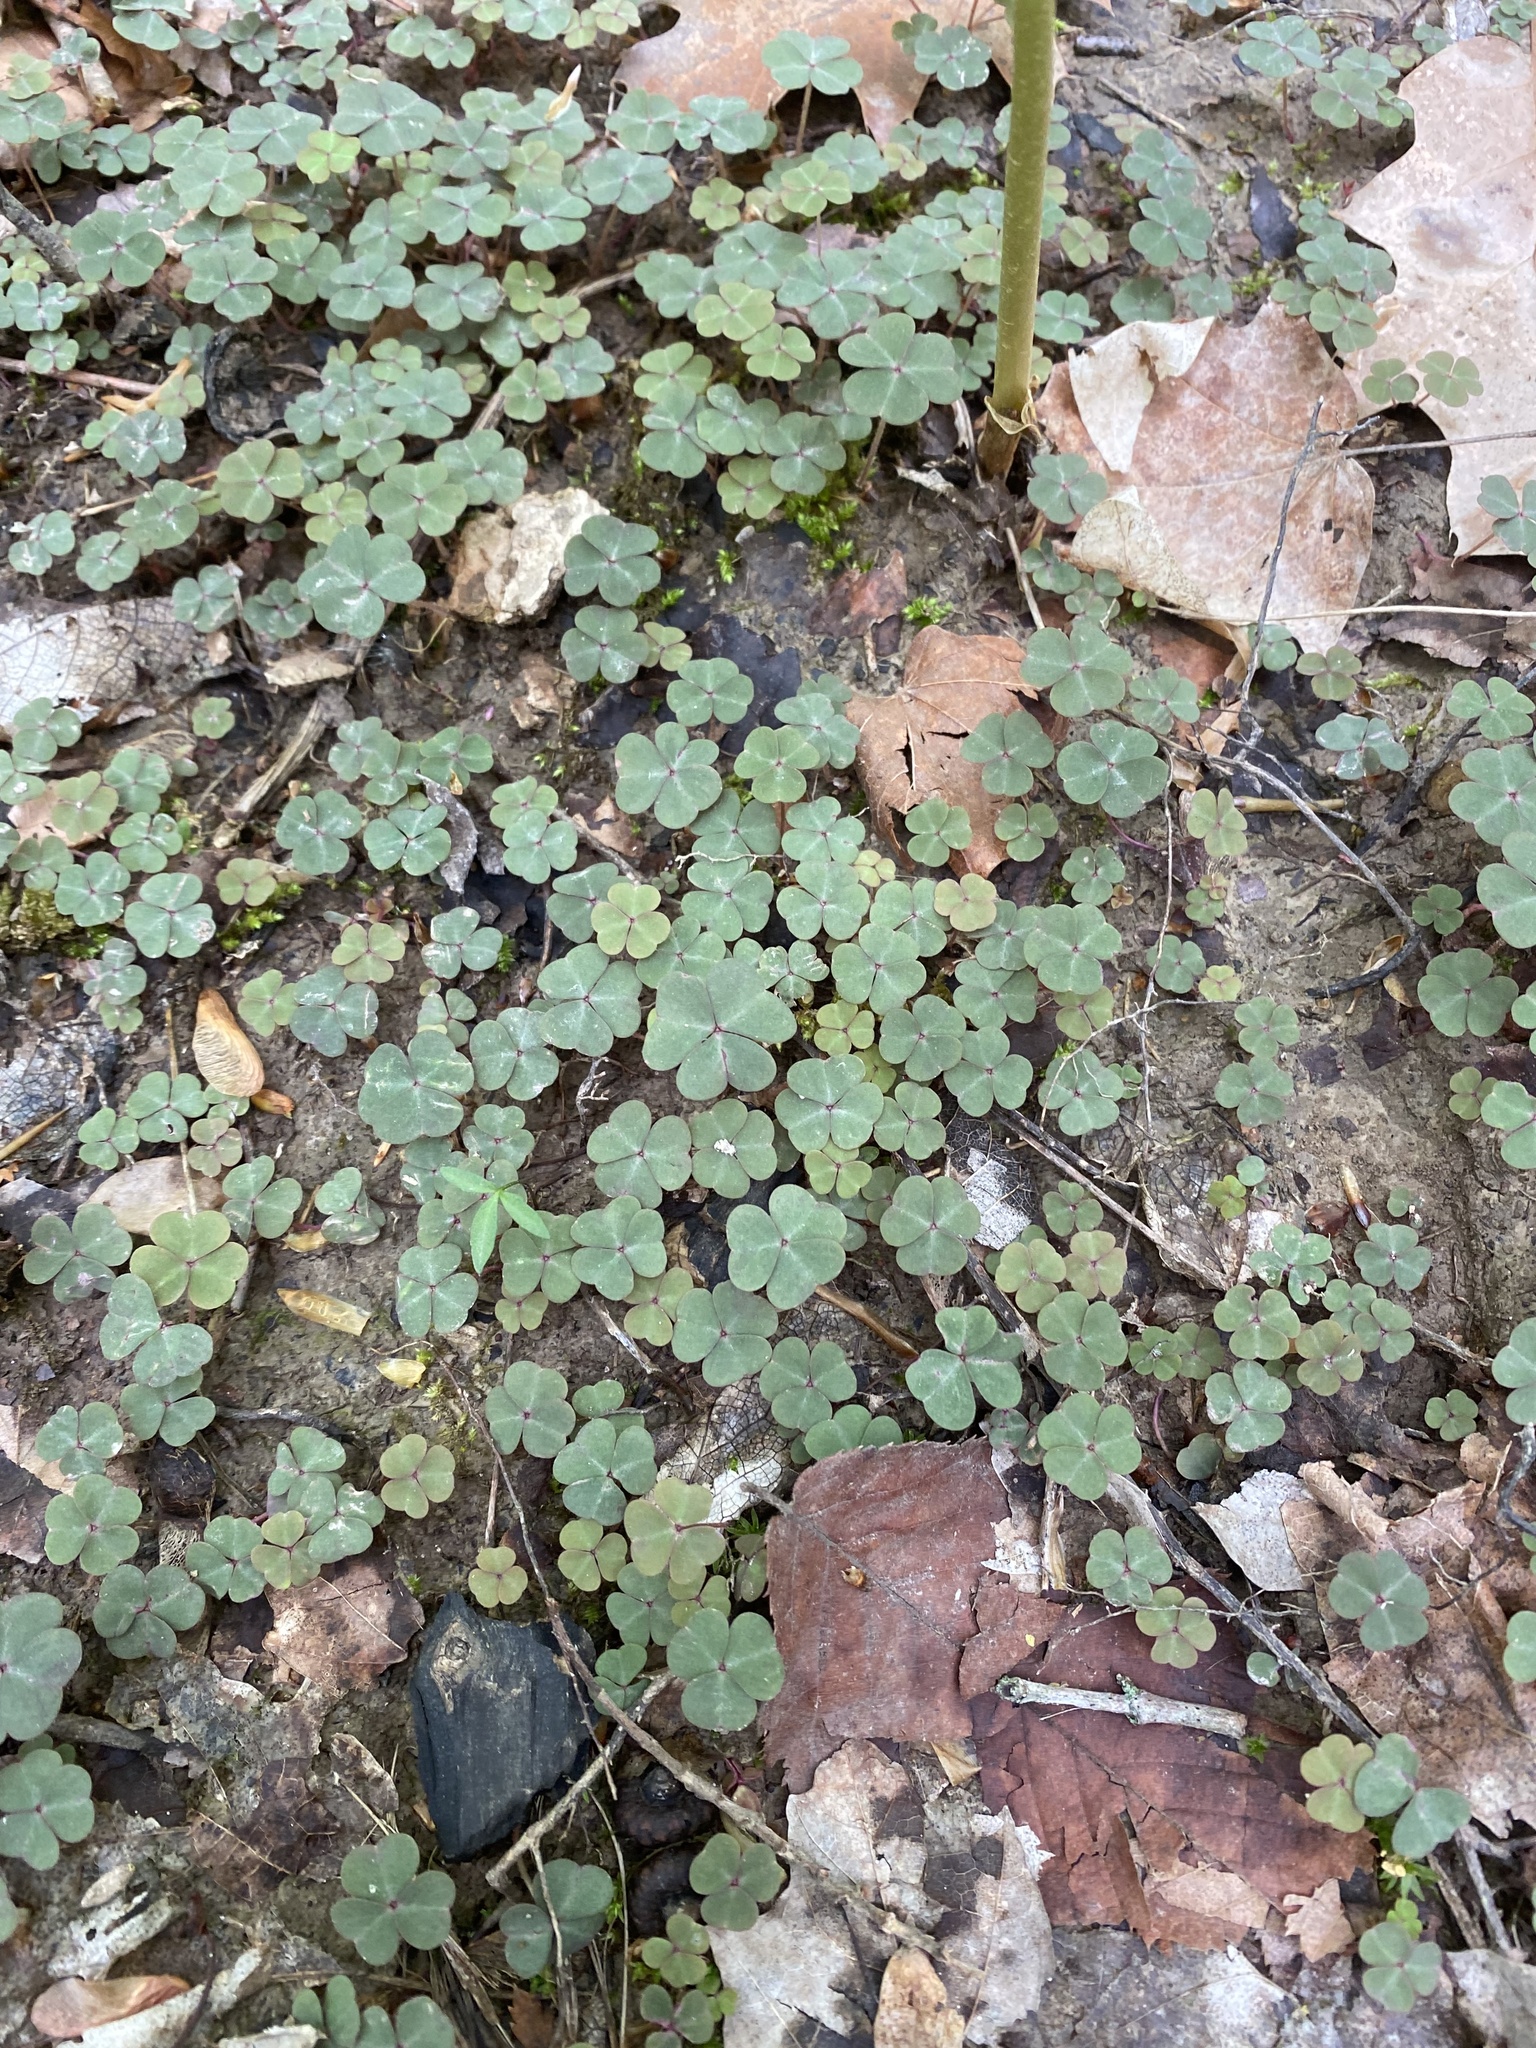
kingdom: Plantae
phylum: Tracheophyta
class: Magnoliopsida
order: Oxalidales
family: Oxalidaceae
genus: Oxalis
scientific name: Oxalis violacea
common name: Violet wood-sorrel
